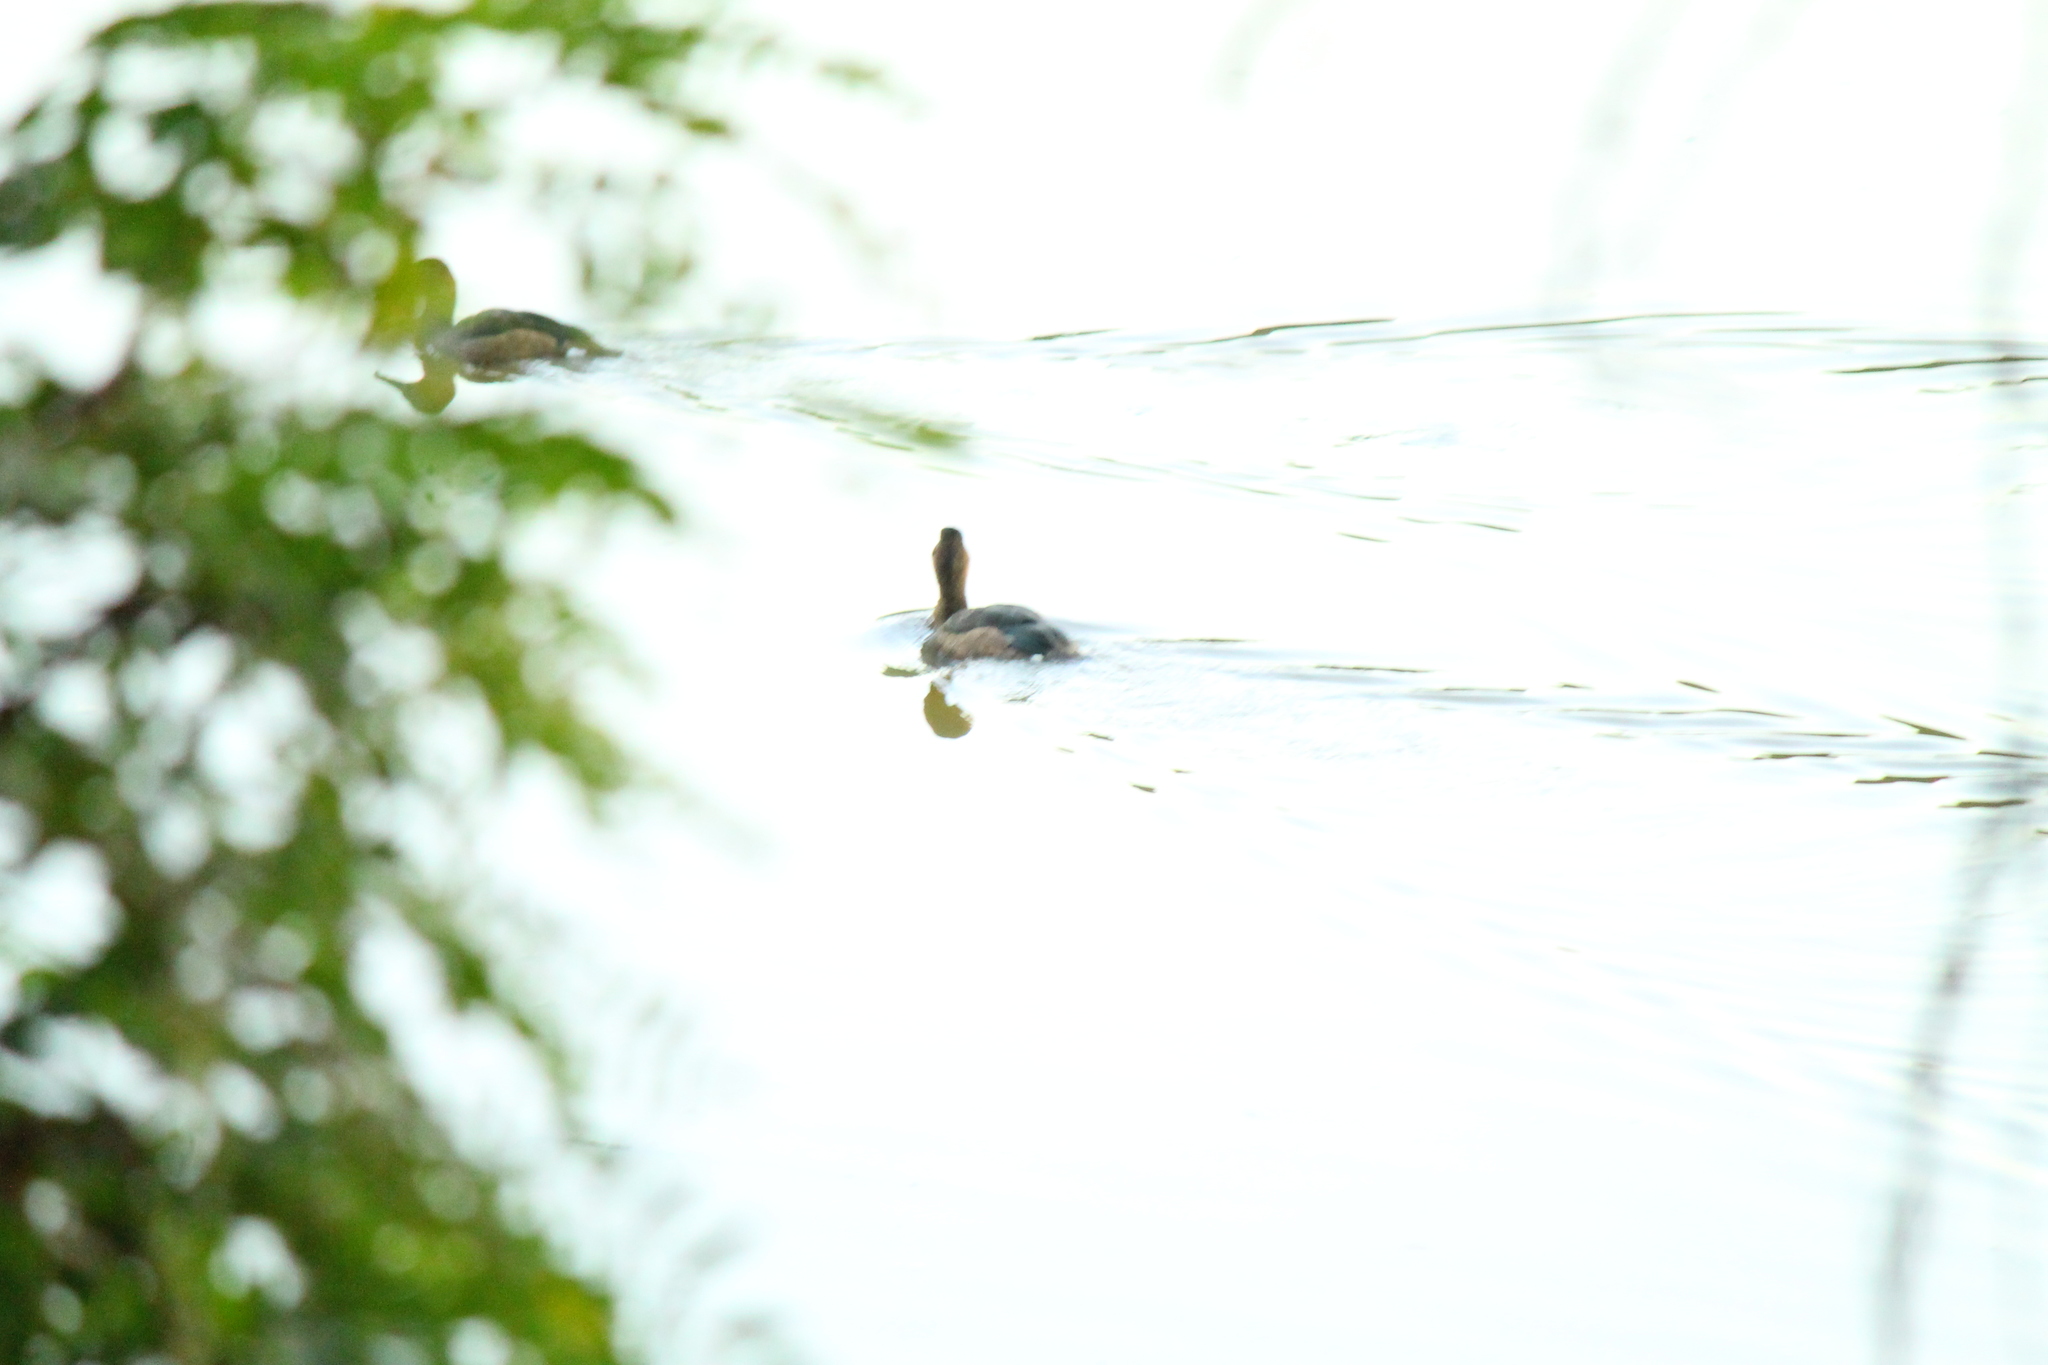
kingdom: Animalia
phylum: Chordata
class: Aves
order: Anseriformes
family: Anatidae
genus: Netta
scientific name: Netta peposaca
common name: Rosy-billed pochard
